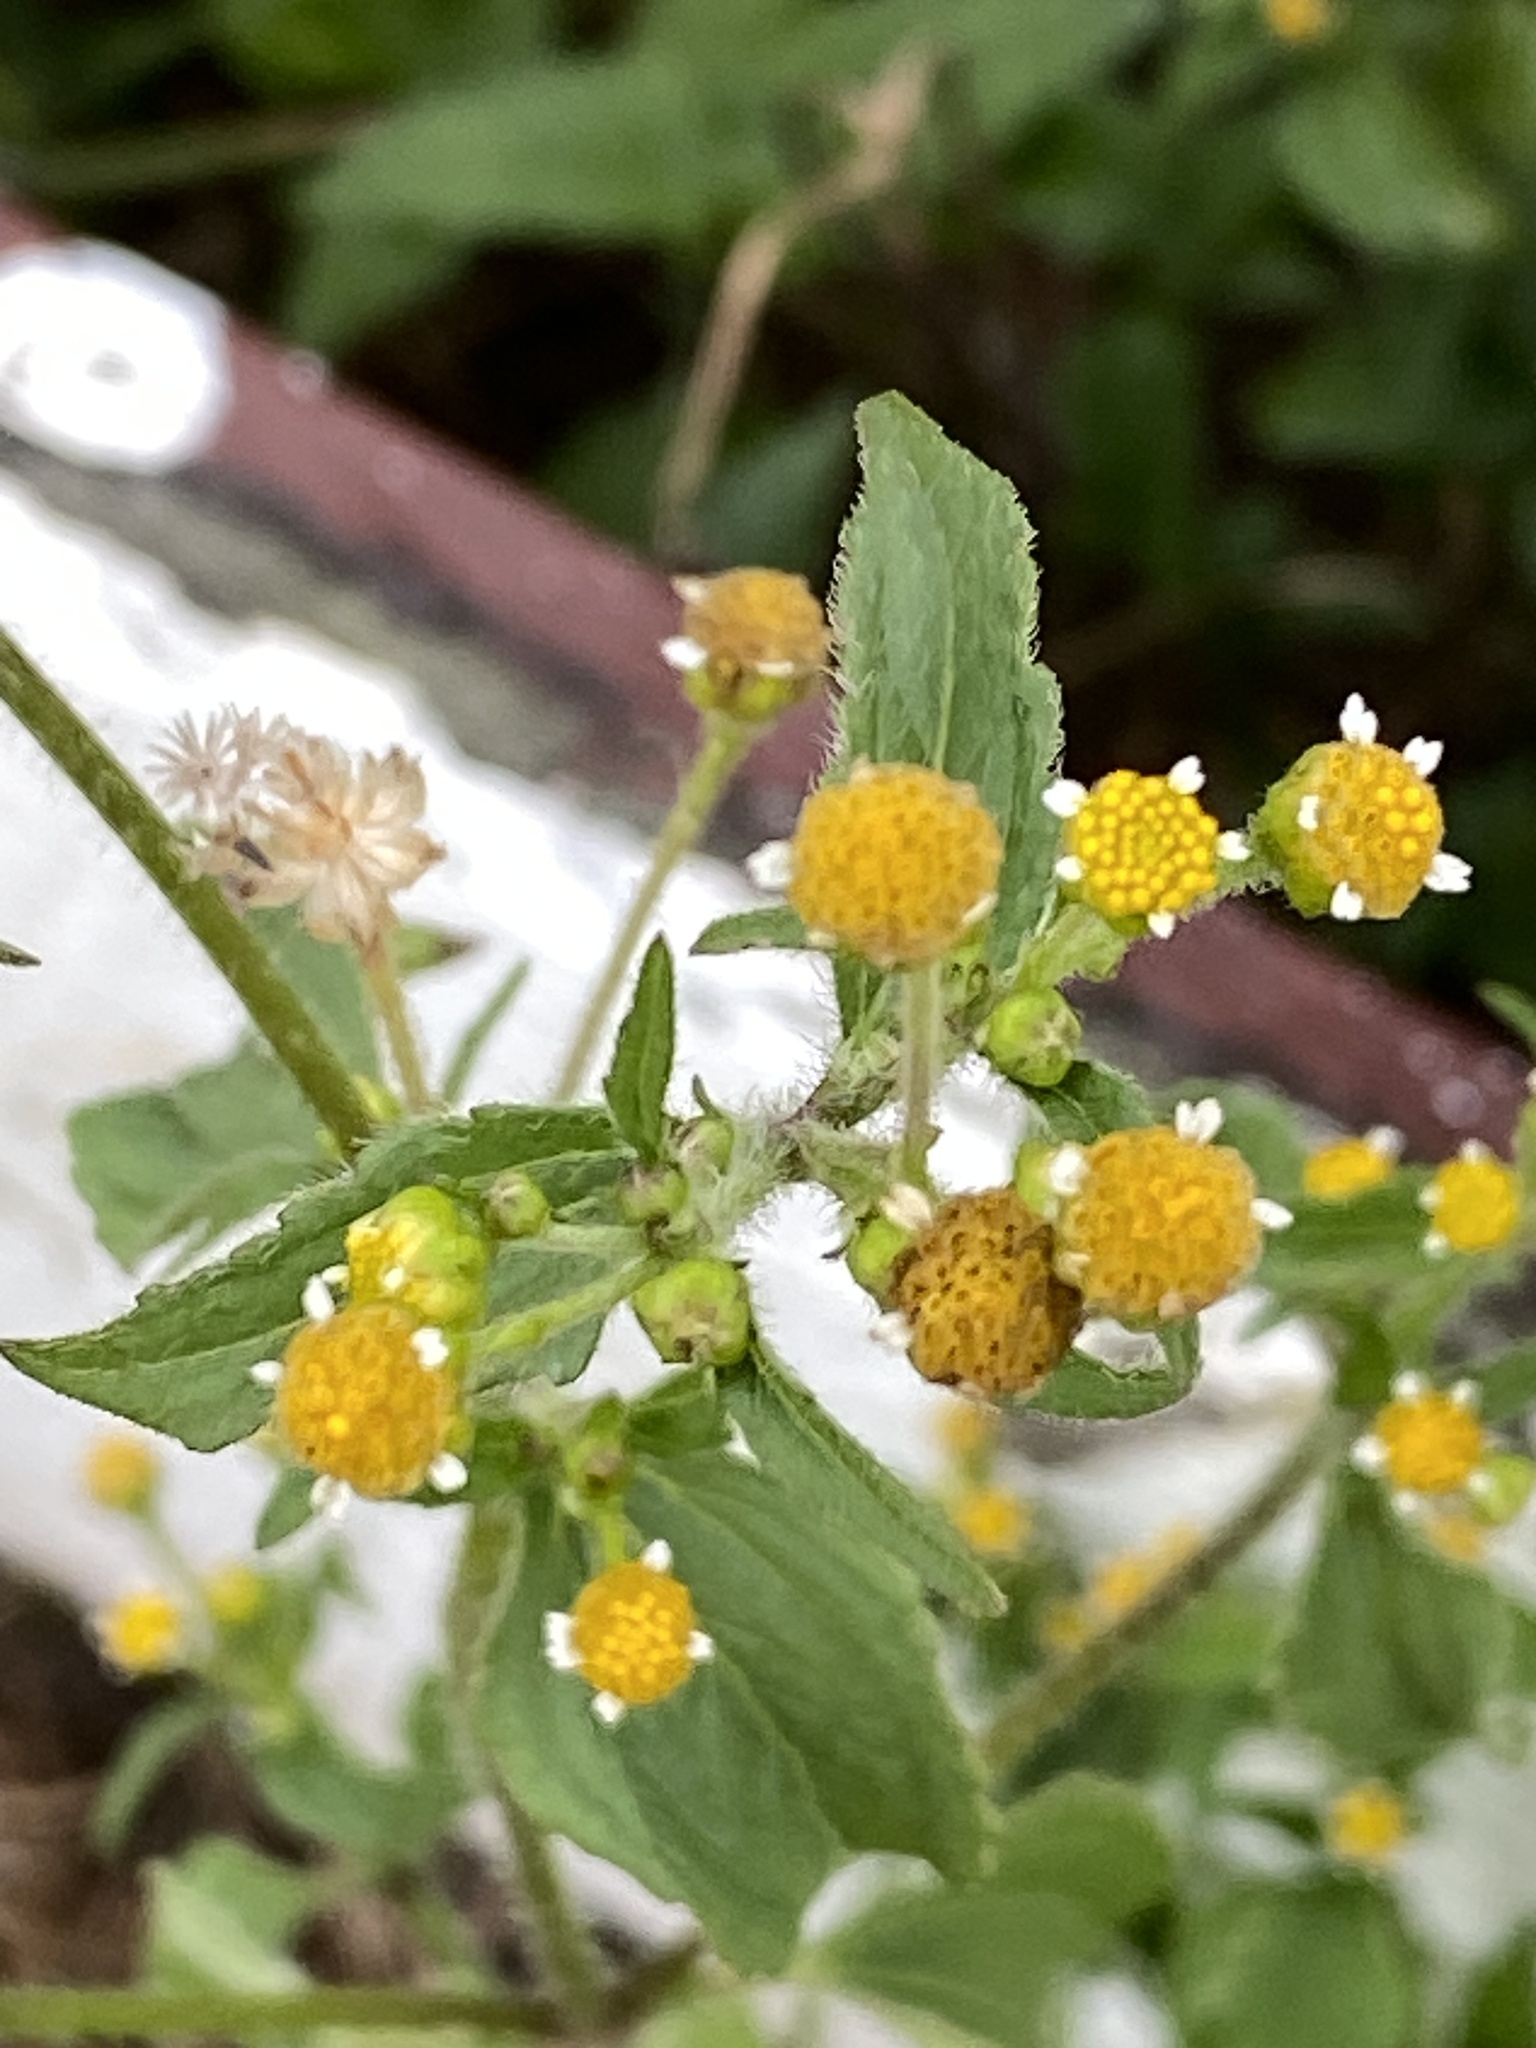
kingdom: Plantae
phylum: Tracheophyta
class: Magnoliopsida
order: Asterales
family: Asteraceae
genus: Galinsoga
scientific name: Galinsoga parviflora
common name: Gallant soldier
